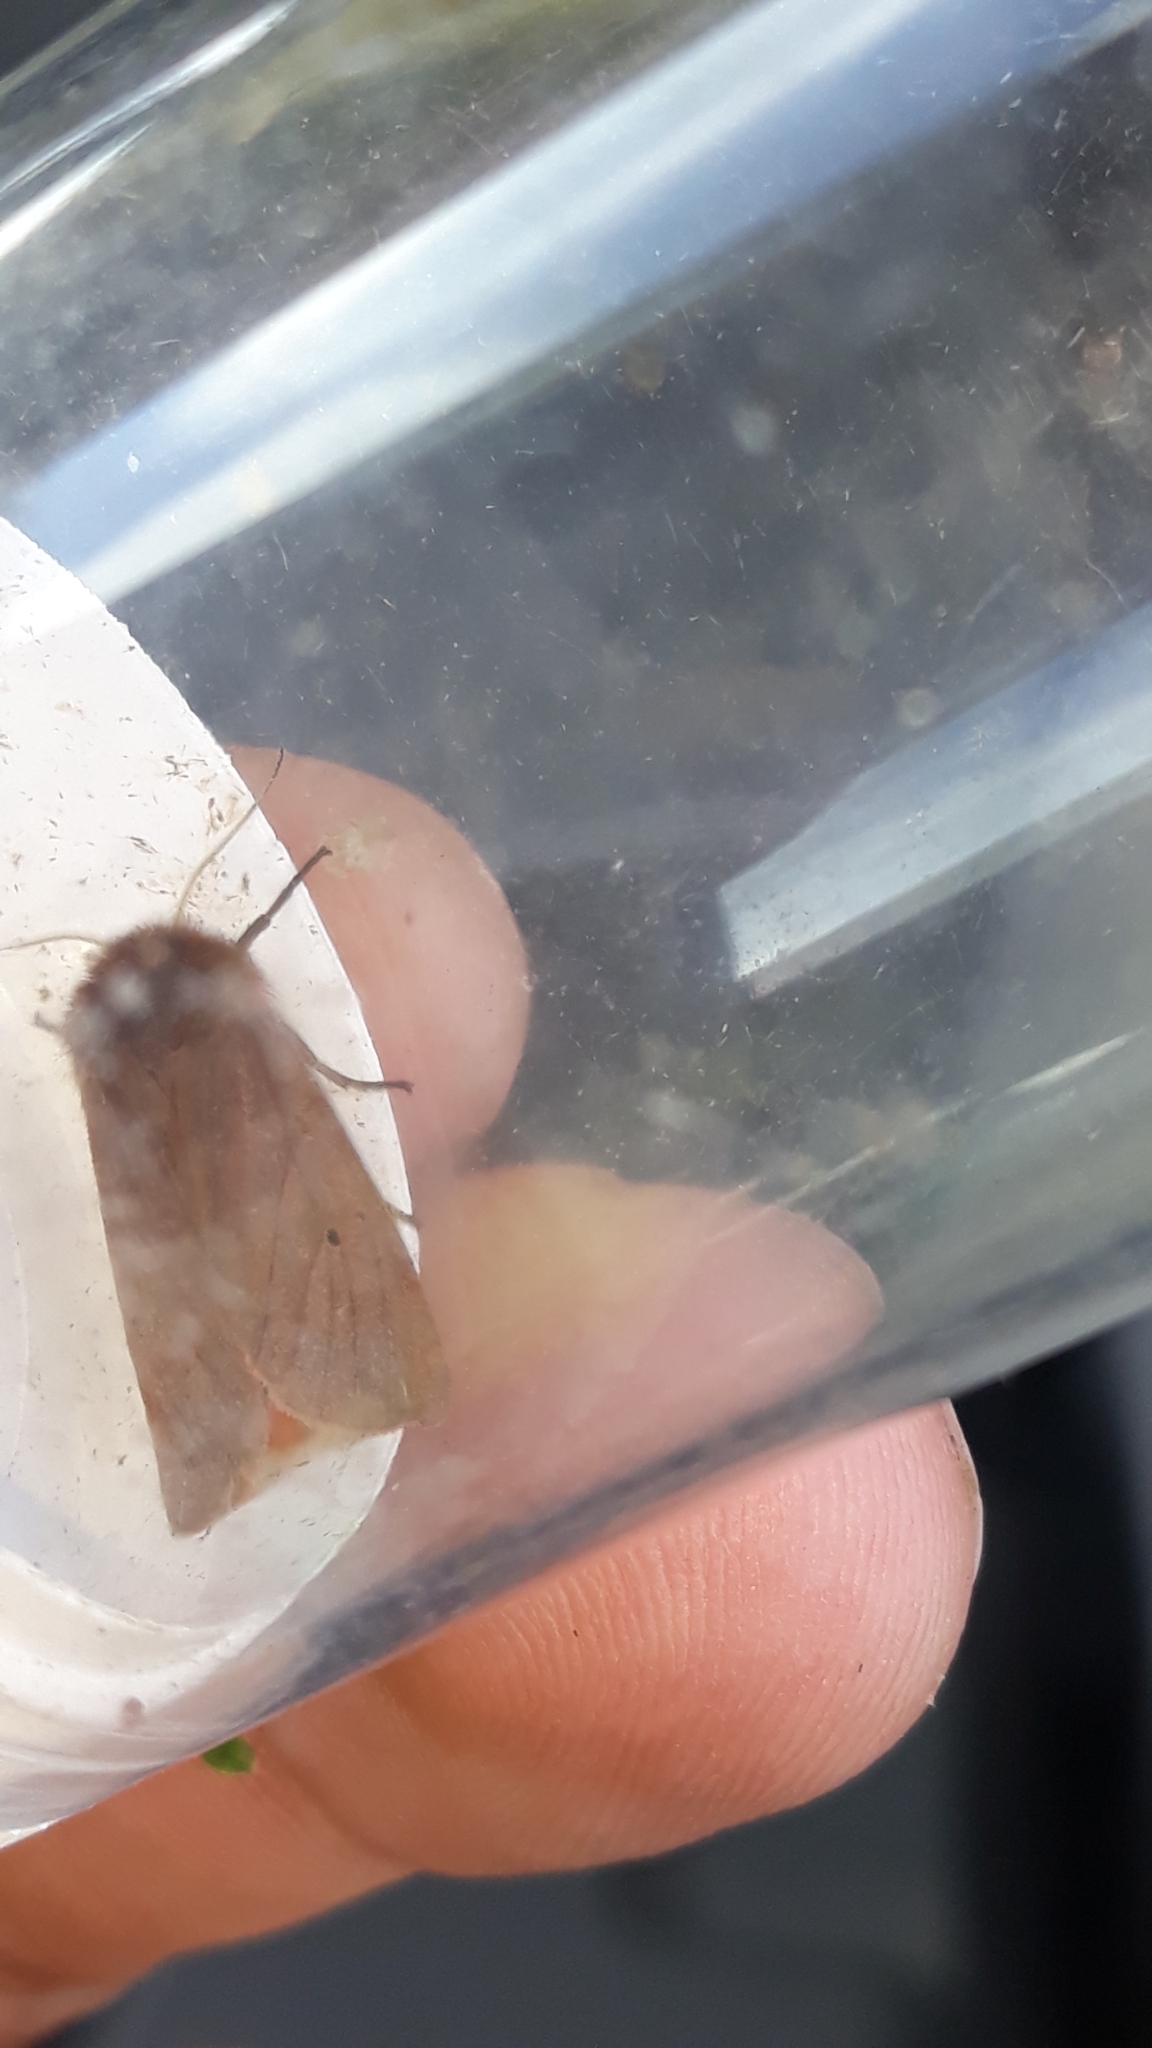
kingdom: Animalia
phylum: Arthropoda
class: Insecta
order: Lepidoptera
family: Erebidae
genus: Phragmatobia
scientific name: Phragmatobia fuliginosa
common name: Ruby tiger
